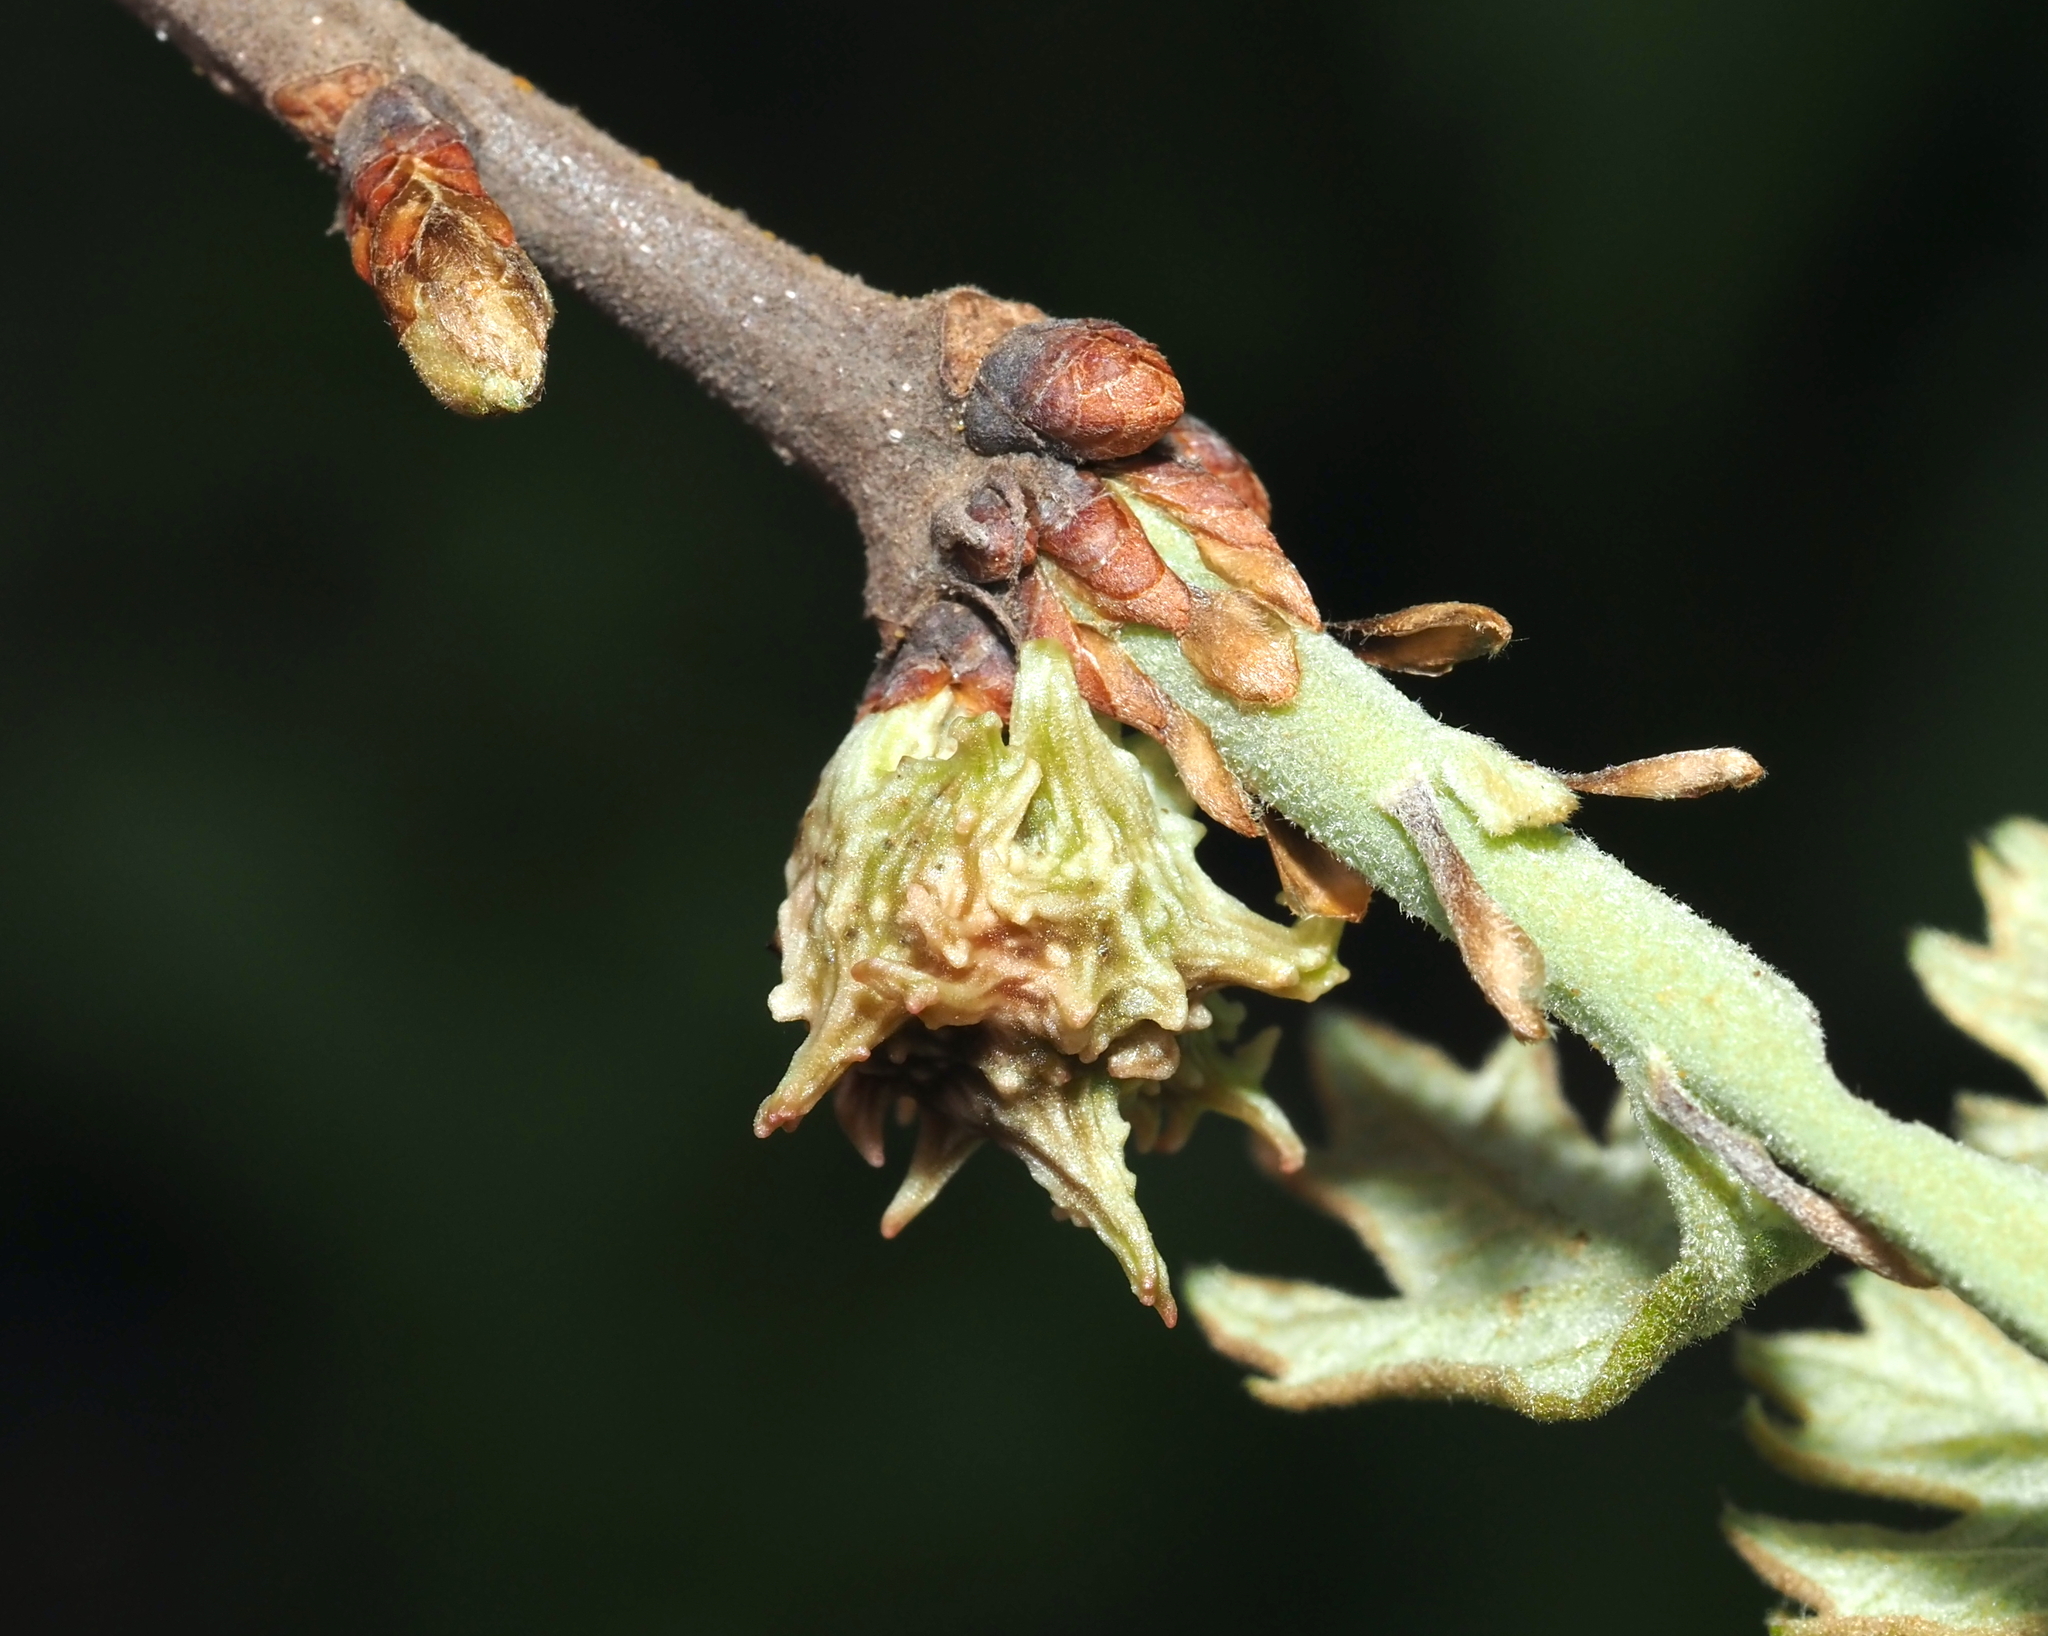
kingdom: Animalia
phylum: Arthropoda
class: Insecta
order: Hymenoptera
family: Cynipidae
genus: Andricus
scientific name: Andricus
